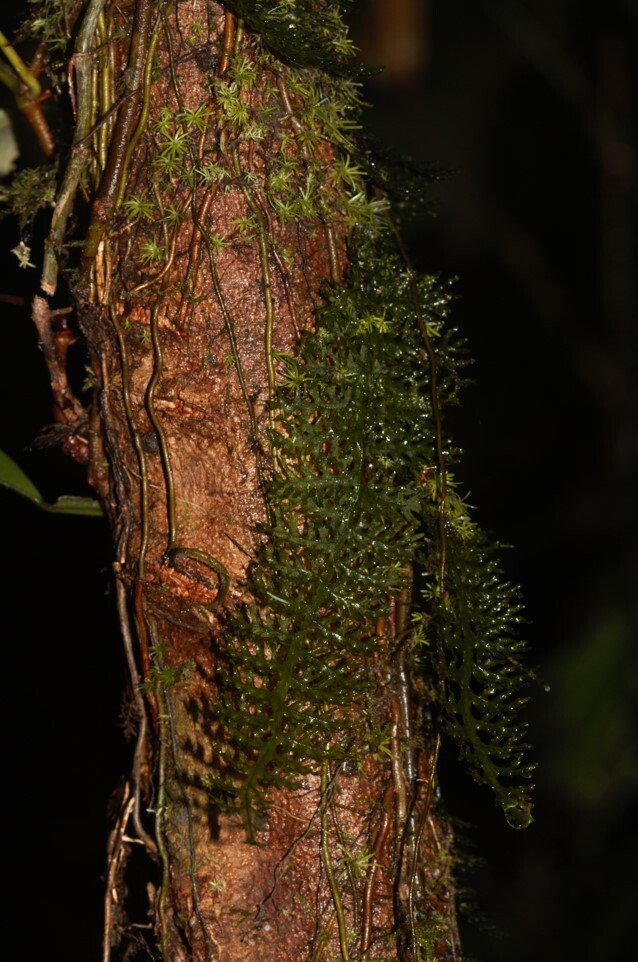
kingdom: Plantae
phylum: Tracheophyta
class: Polypodiopsida
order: Hymenophyllales
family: Hymenophyllaceae
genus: Trichomanes
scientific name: Trichomanes pedicellatum
